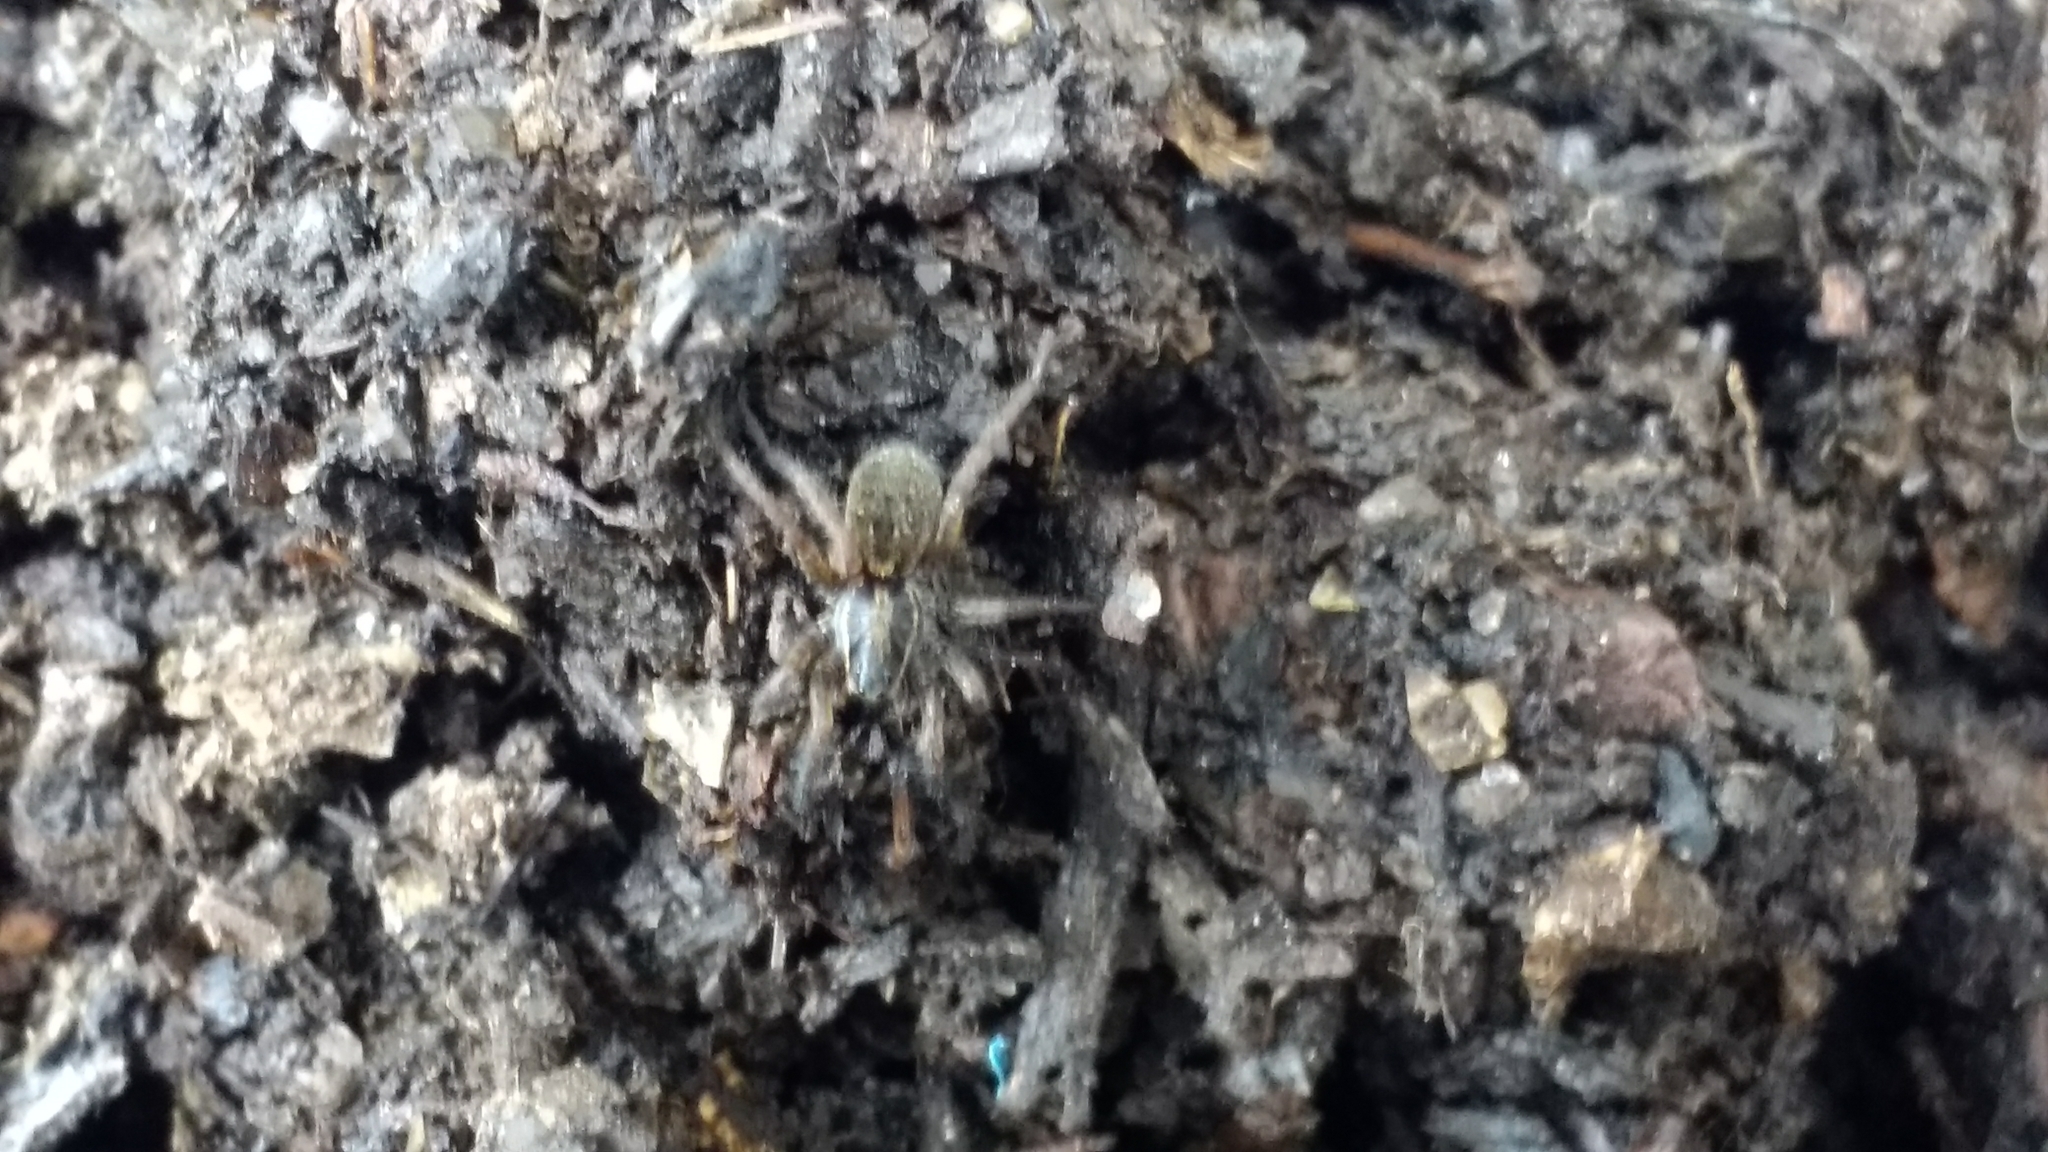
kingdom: Animalia
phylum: Arthropoda
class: Arachnida
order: Araneae
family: Lycosidae
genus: Alopecosa
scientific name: Alopecosa nigricans
